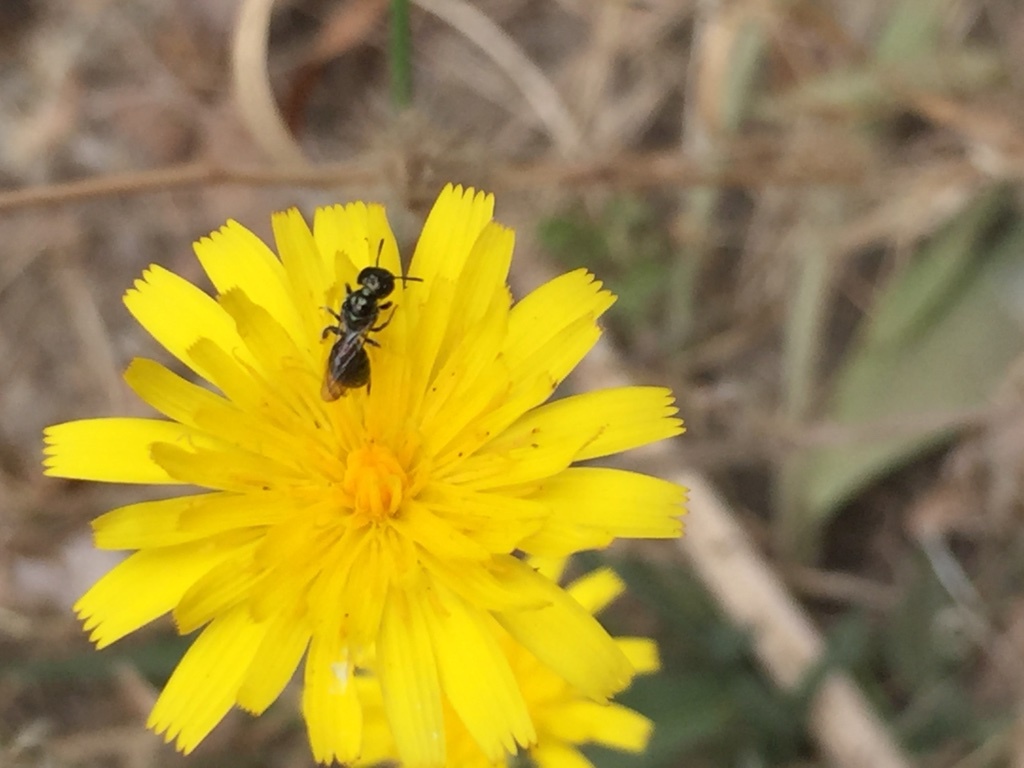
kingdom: Plantae
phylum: Tracheophyta
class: Magnoliopsida
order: Asterales
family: Asteraceae
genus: Hypochaeris
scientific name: Hypochaeris radicata
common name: Flatweed
